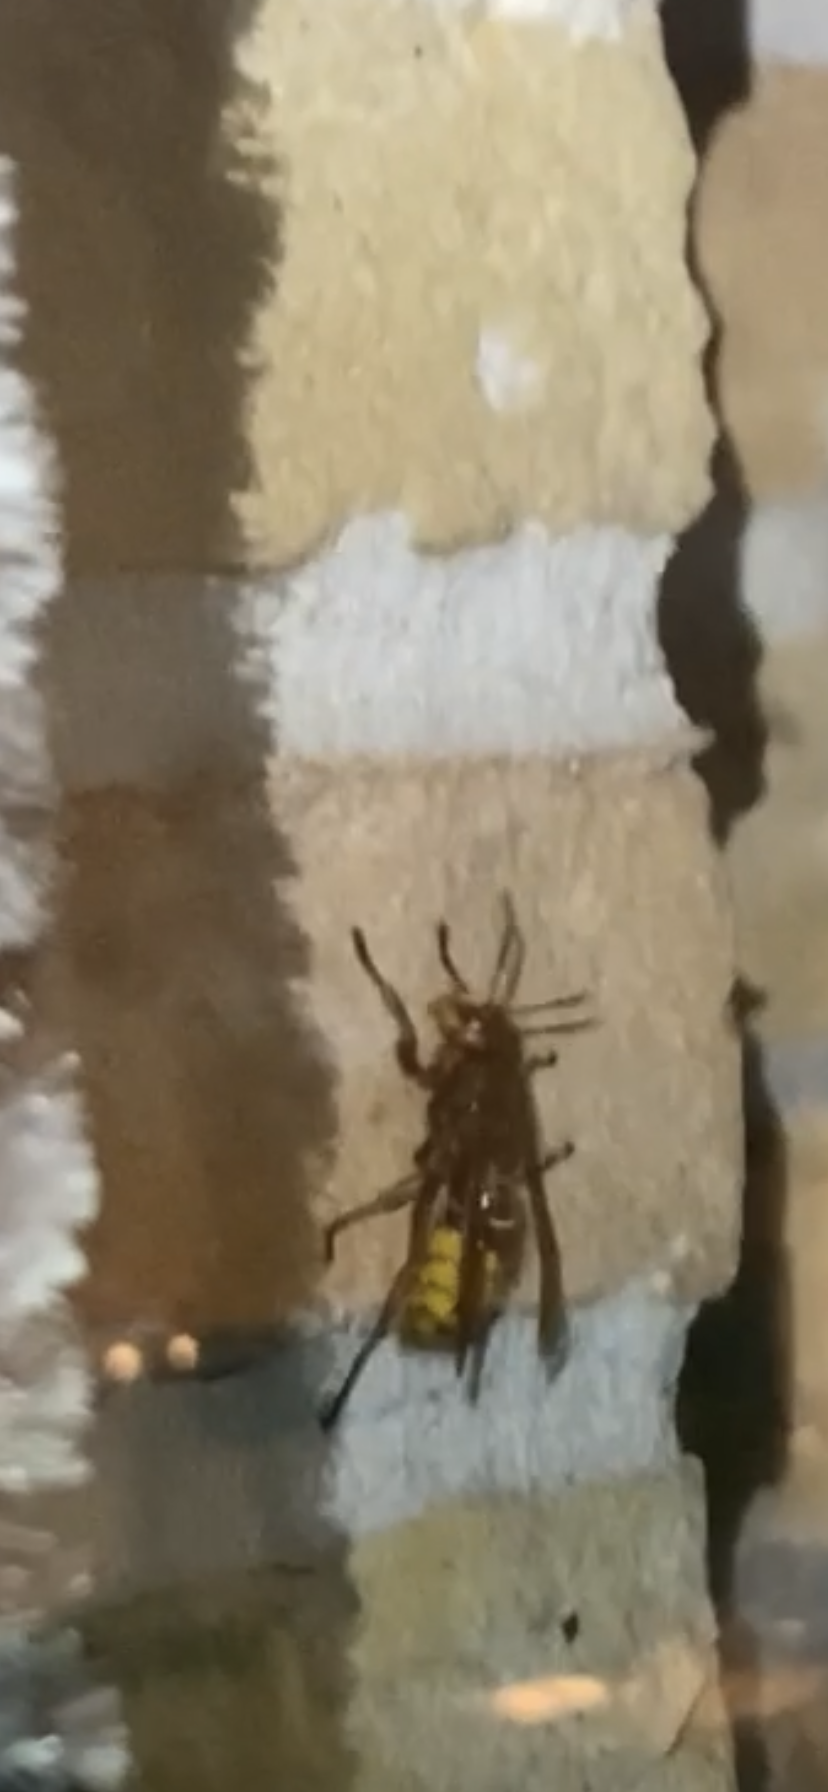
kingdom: Animalia
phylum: Arthropoda
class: Insecta
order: Hymenoptera
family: Vespidae
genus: Vespa
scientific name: Vespa crabro
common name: Hornet
